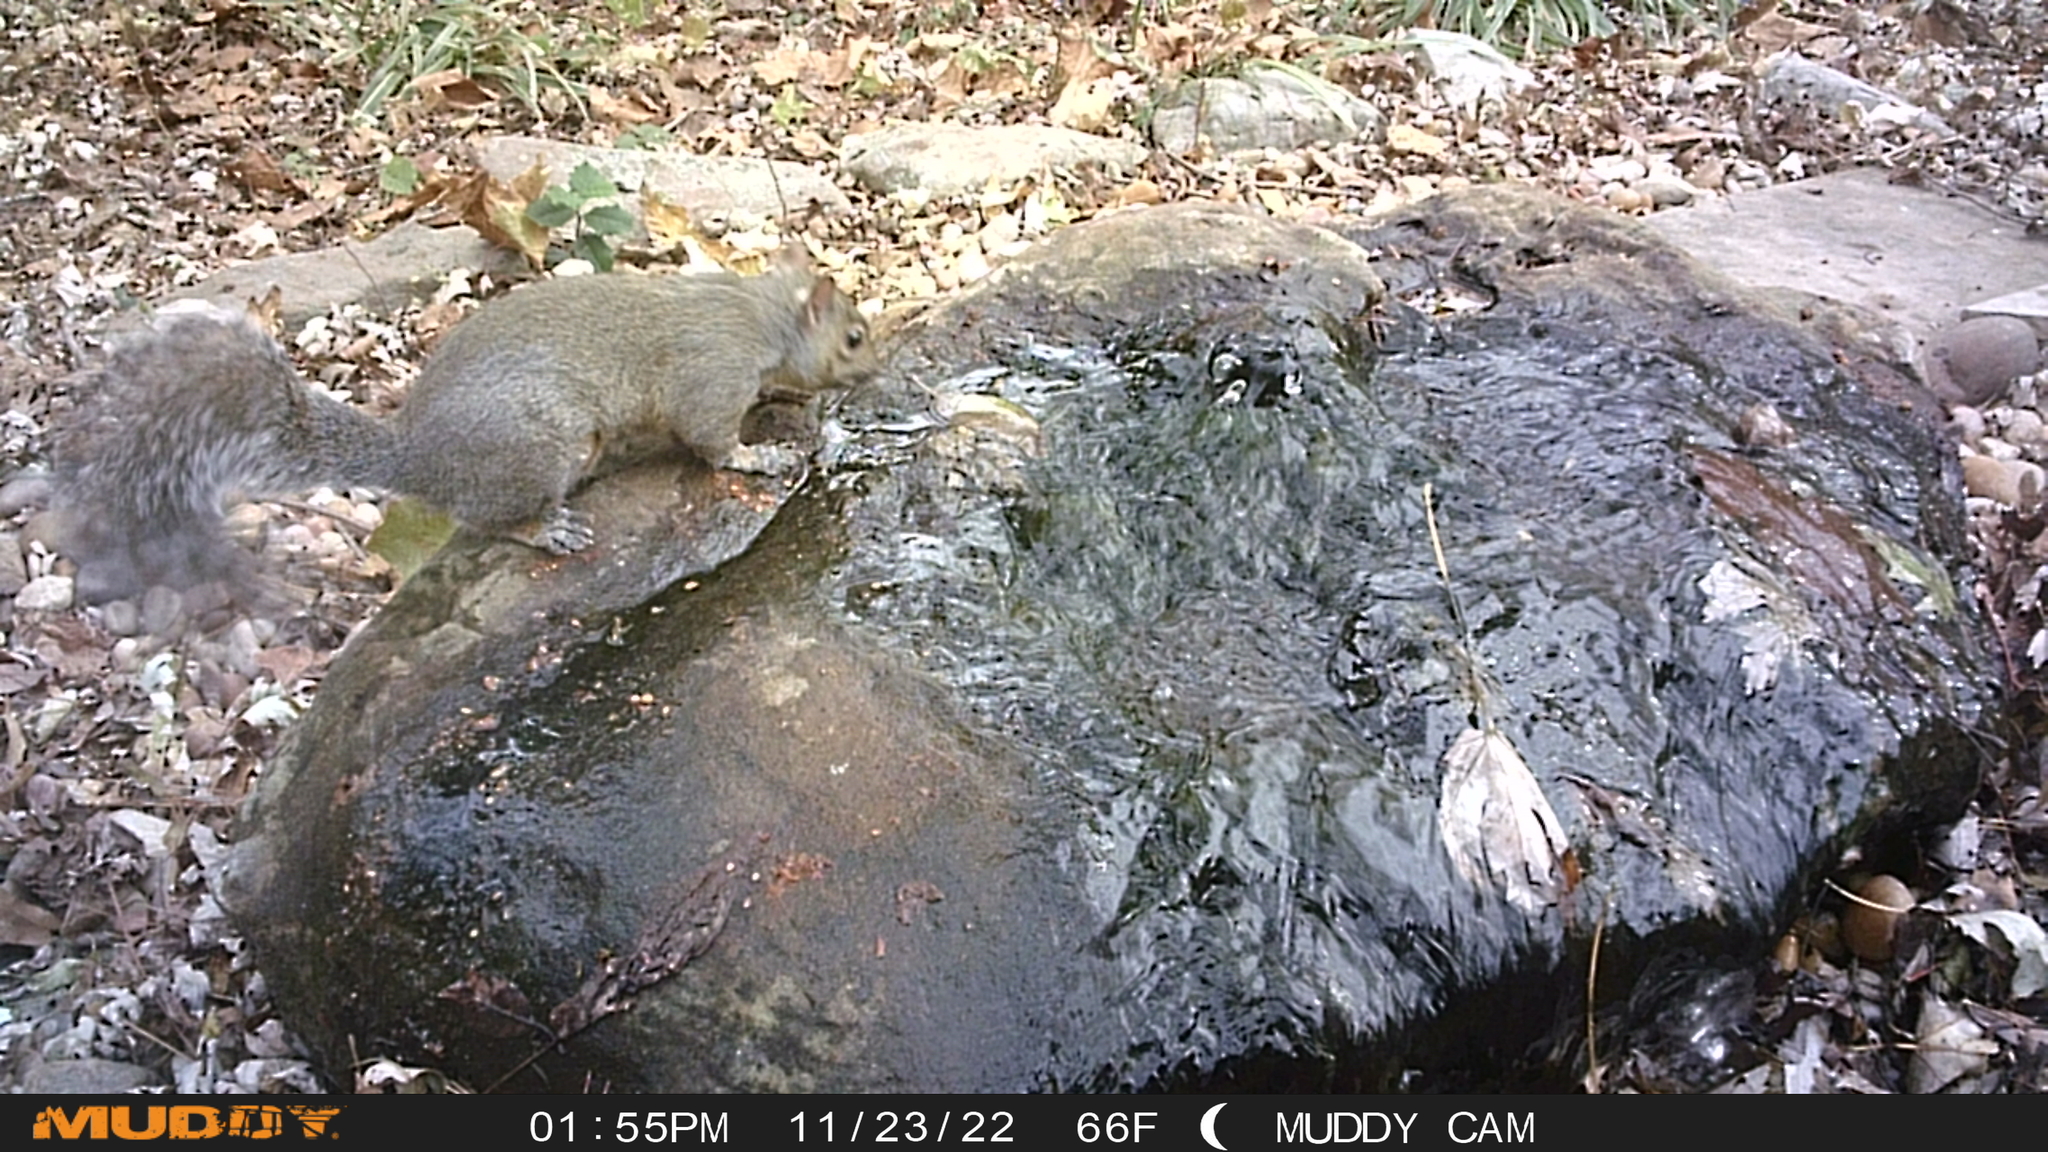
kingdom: Animalia
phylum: Chordata
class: Mammalia
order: Rodentia
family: Sciuridae
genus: Sciurus
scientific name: Sciurus carolinensis
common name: Eastern gray squirrel
